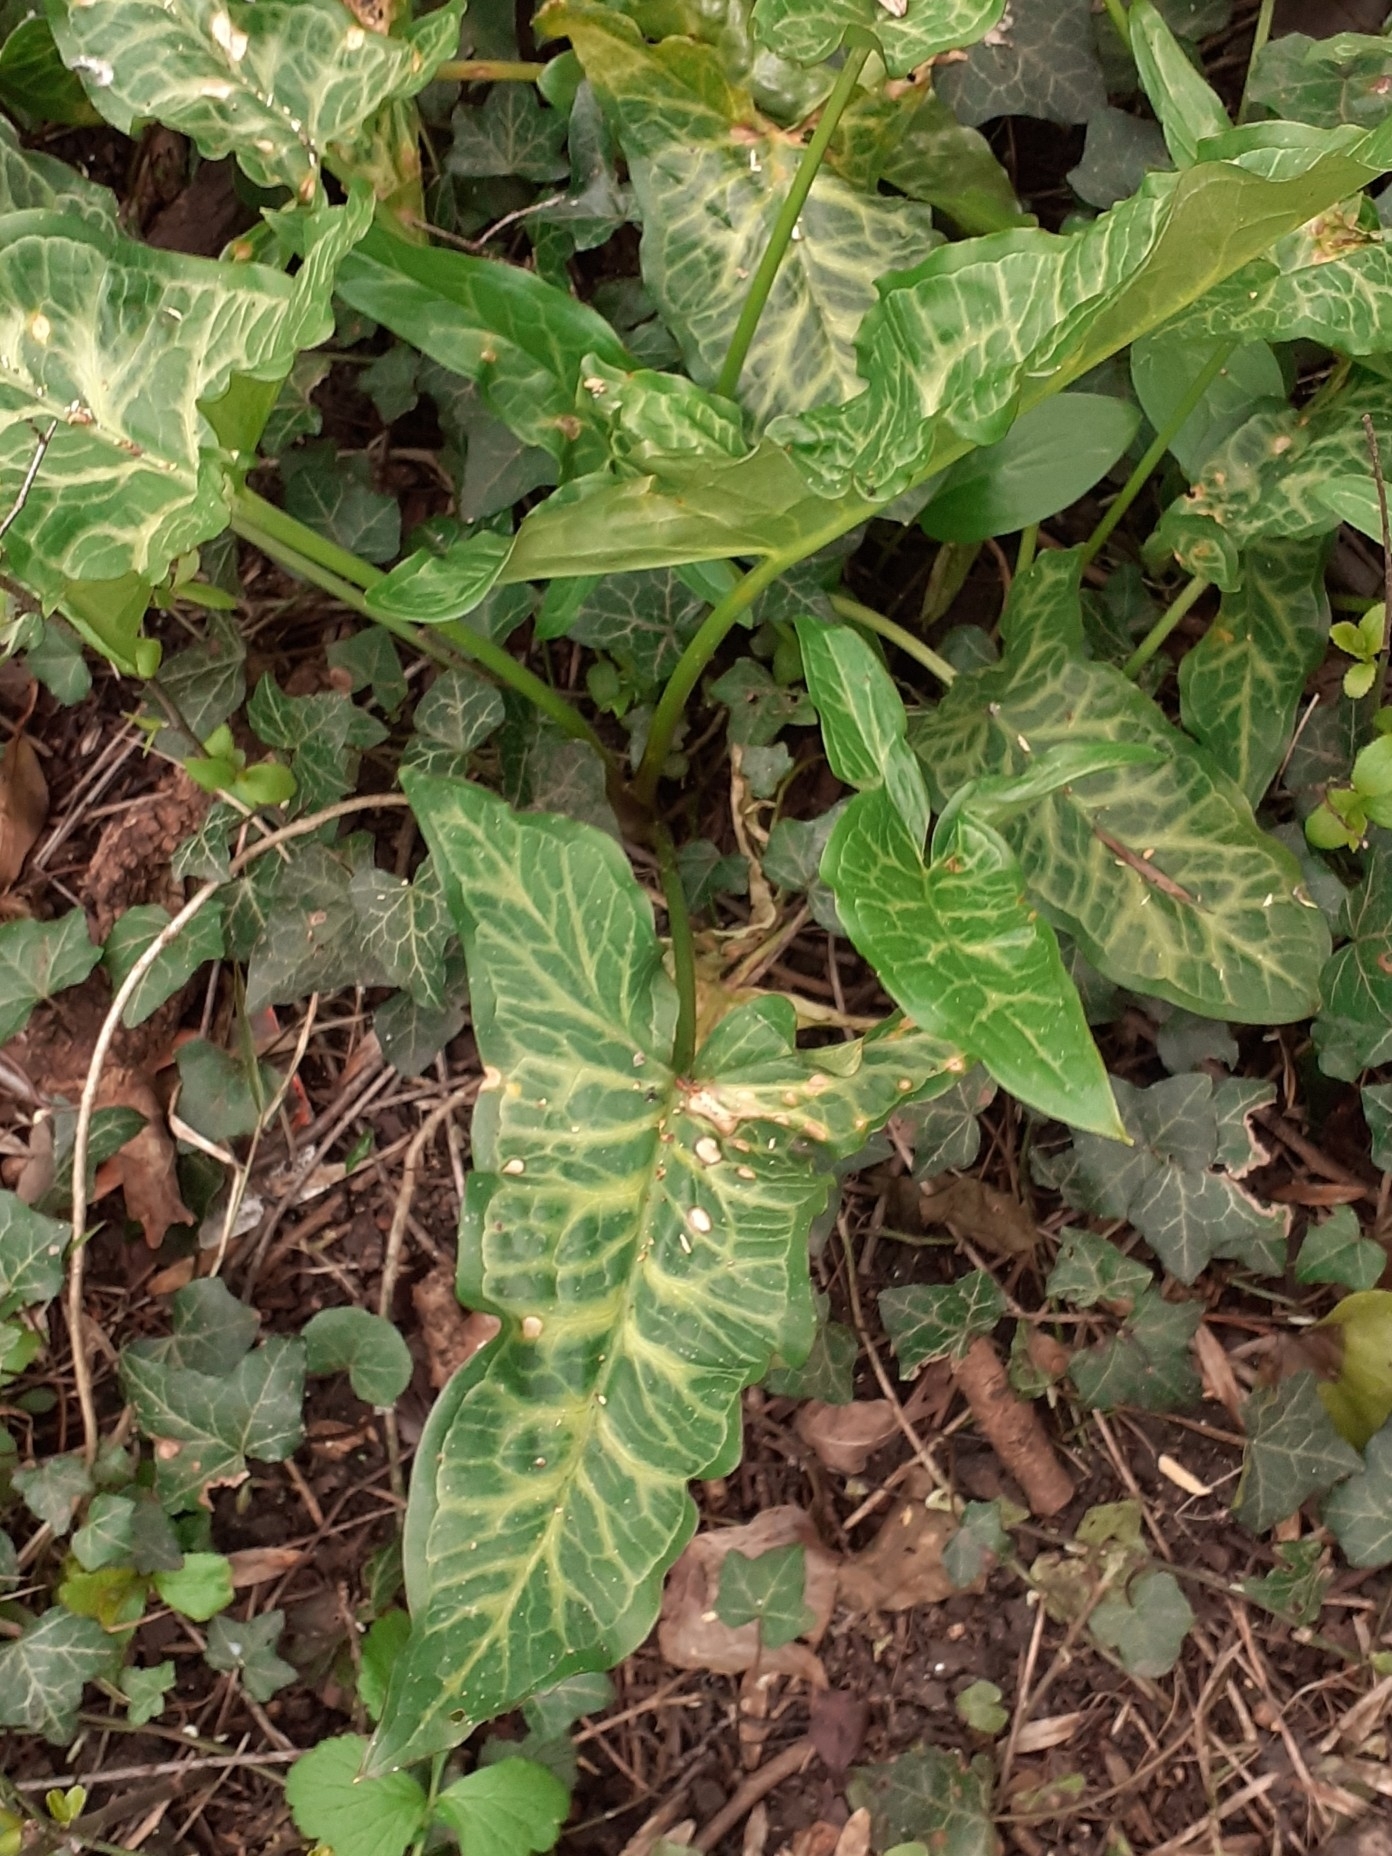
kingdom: Plantae
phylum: Tracheophyta
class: Liliopsida
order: Alismatales
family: Araceae
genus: Arum
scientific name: Arum italicum
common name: Italian lords-and-ladies
